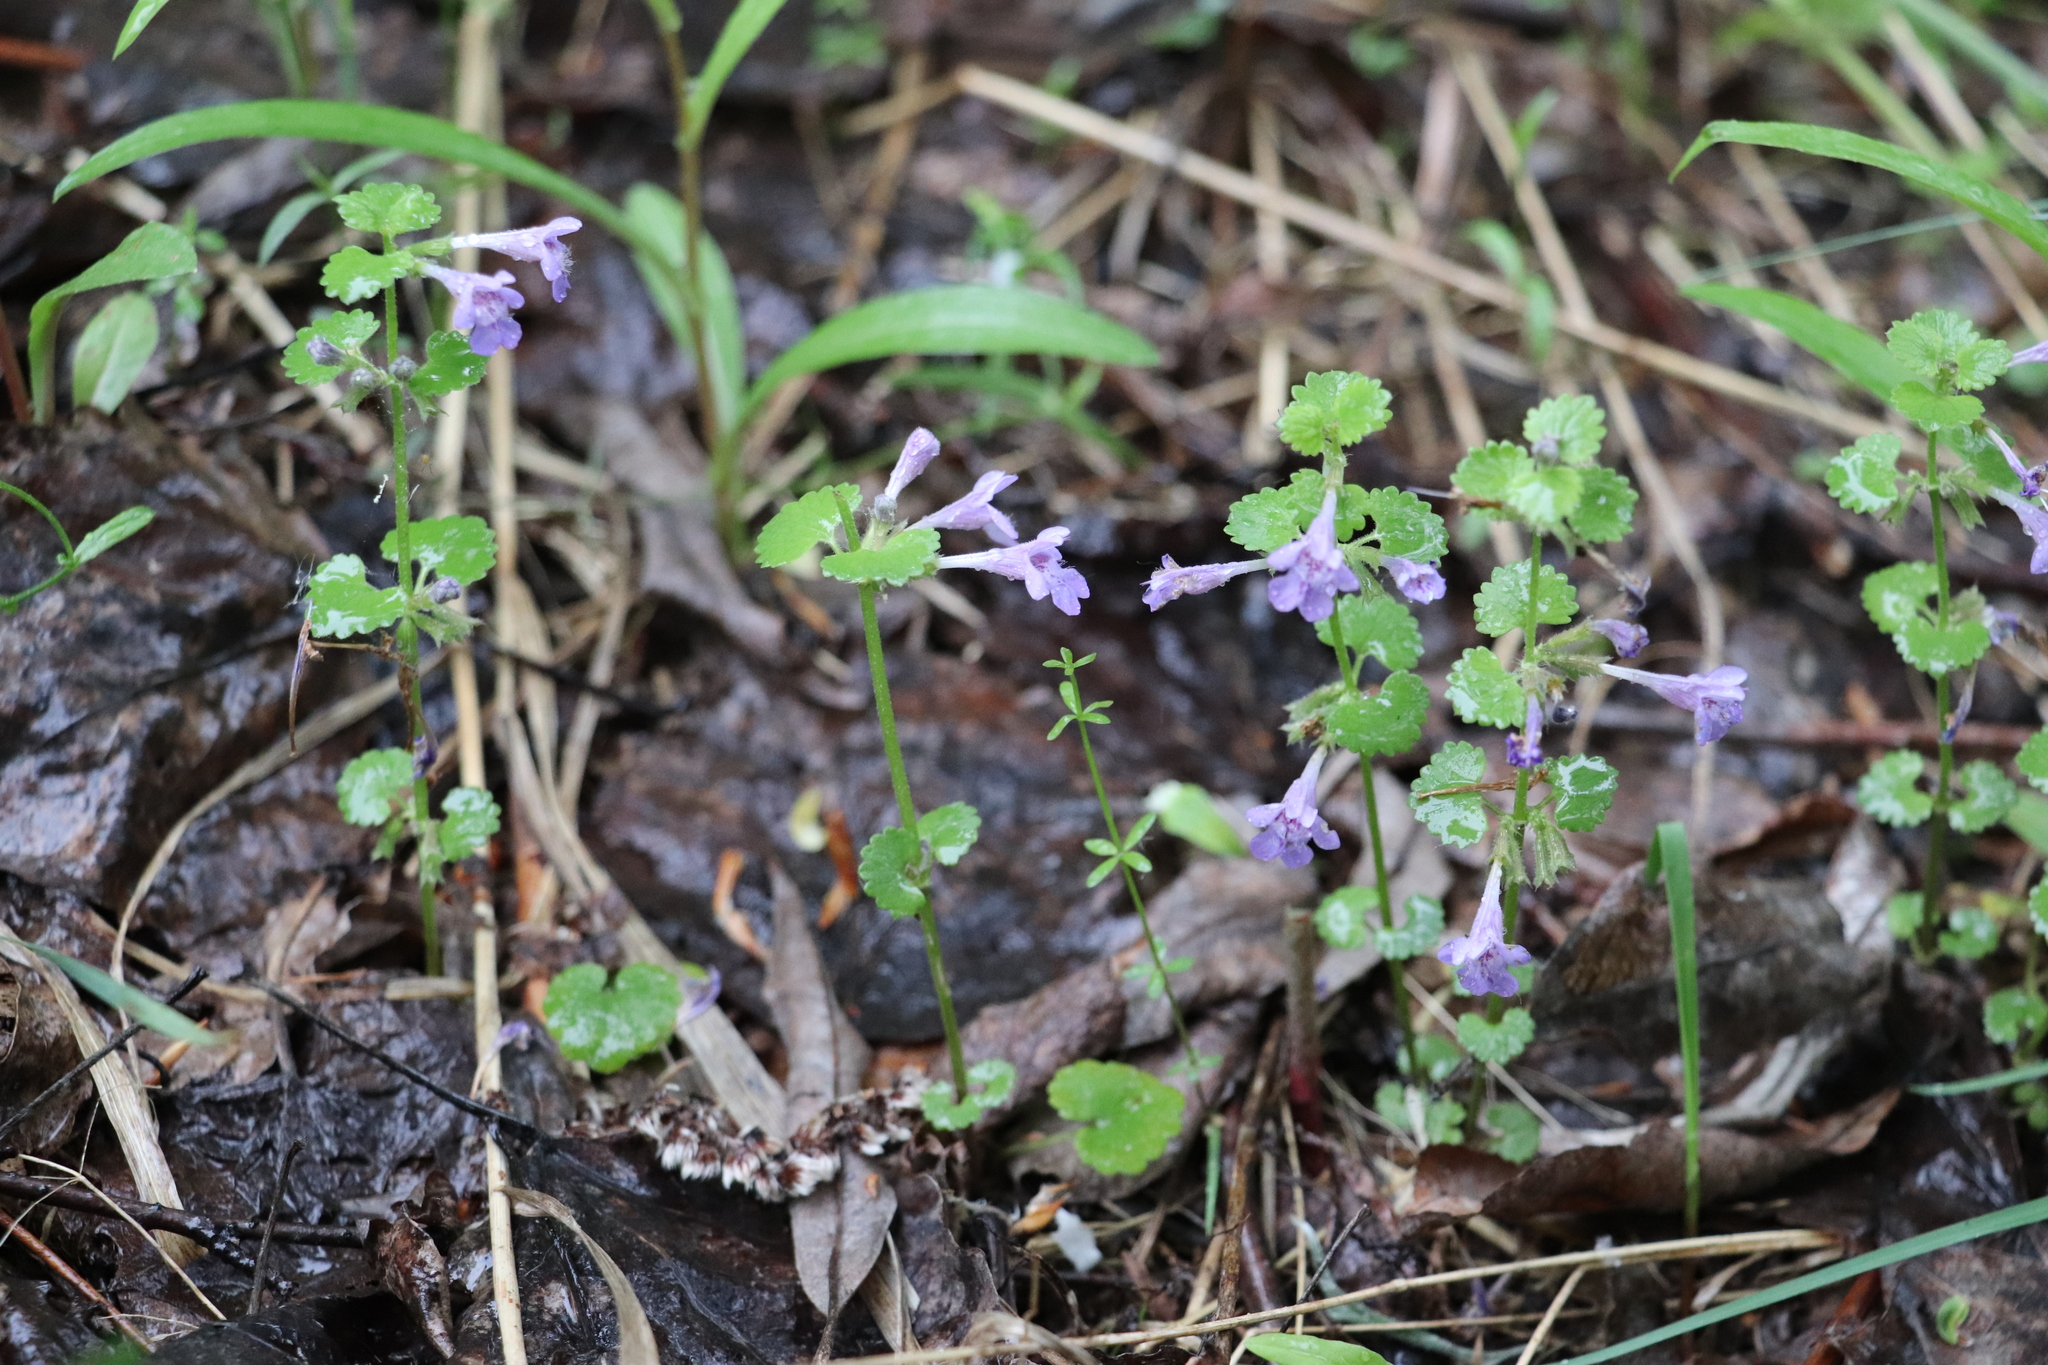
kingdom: Plantae
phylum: Tracheophyta
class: Magnoliopsida
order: Lamiales
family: Lamiaceae
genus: Glechoma
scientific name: Glechoma hederacea
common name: Ground ivy
